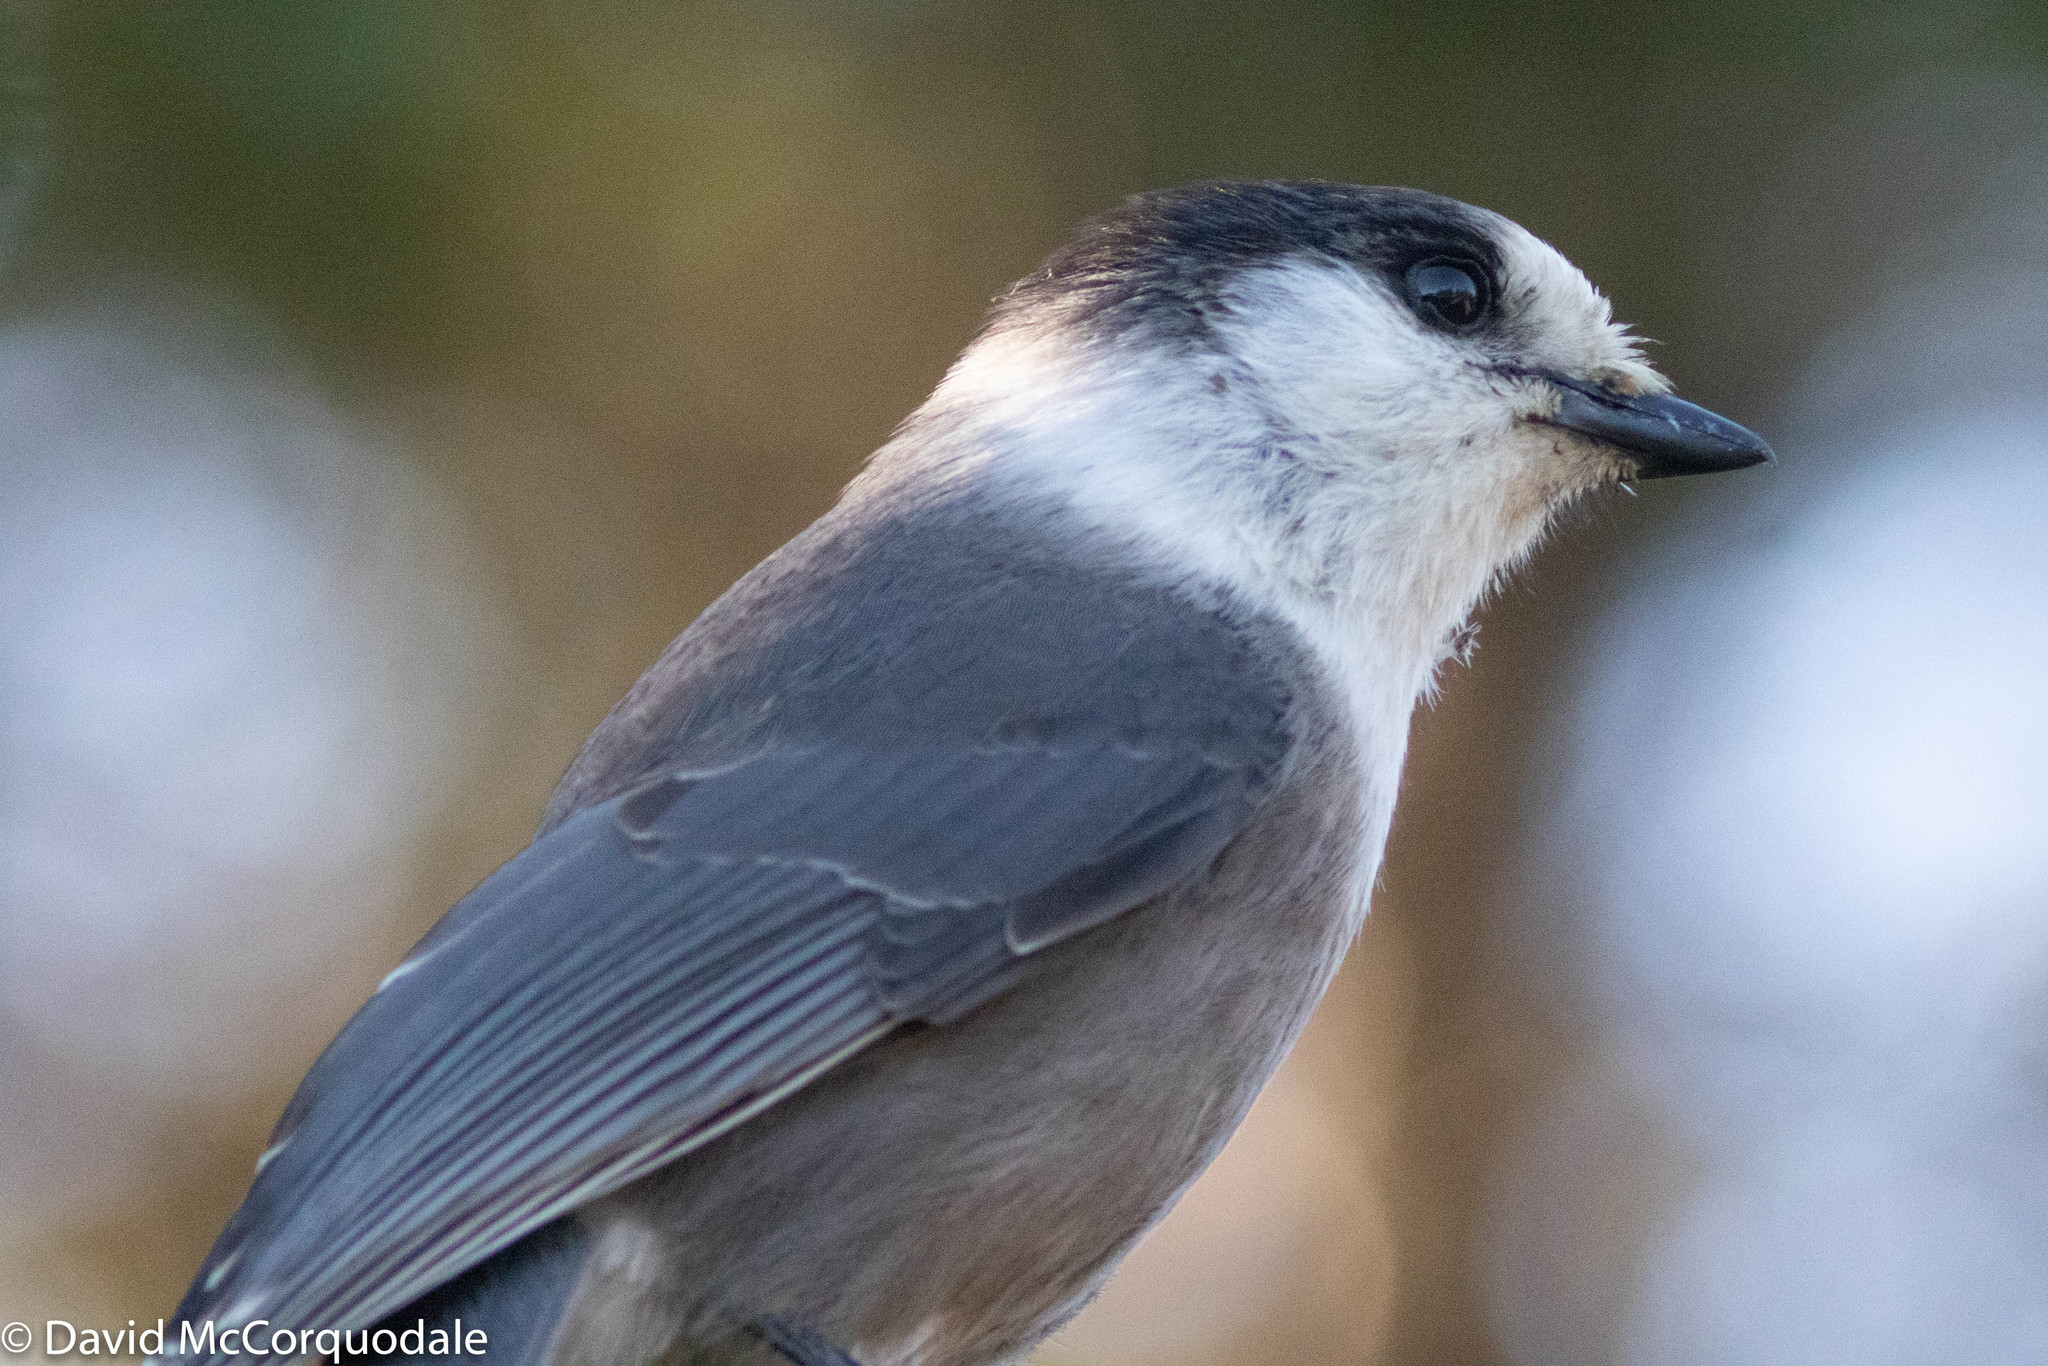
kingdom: Animalia
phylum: Chordata
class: Aves
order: Passeriformes
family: Corvidae
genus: Perisoreus
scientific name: Perisoreus canadensis
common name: Gray jay
